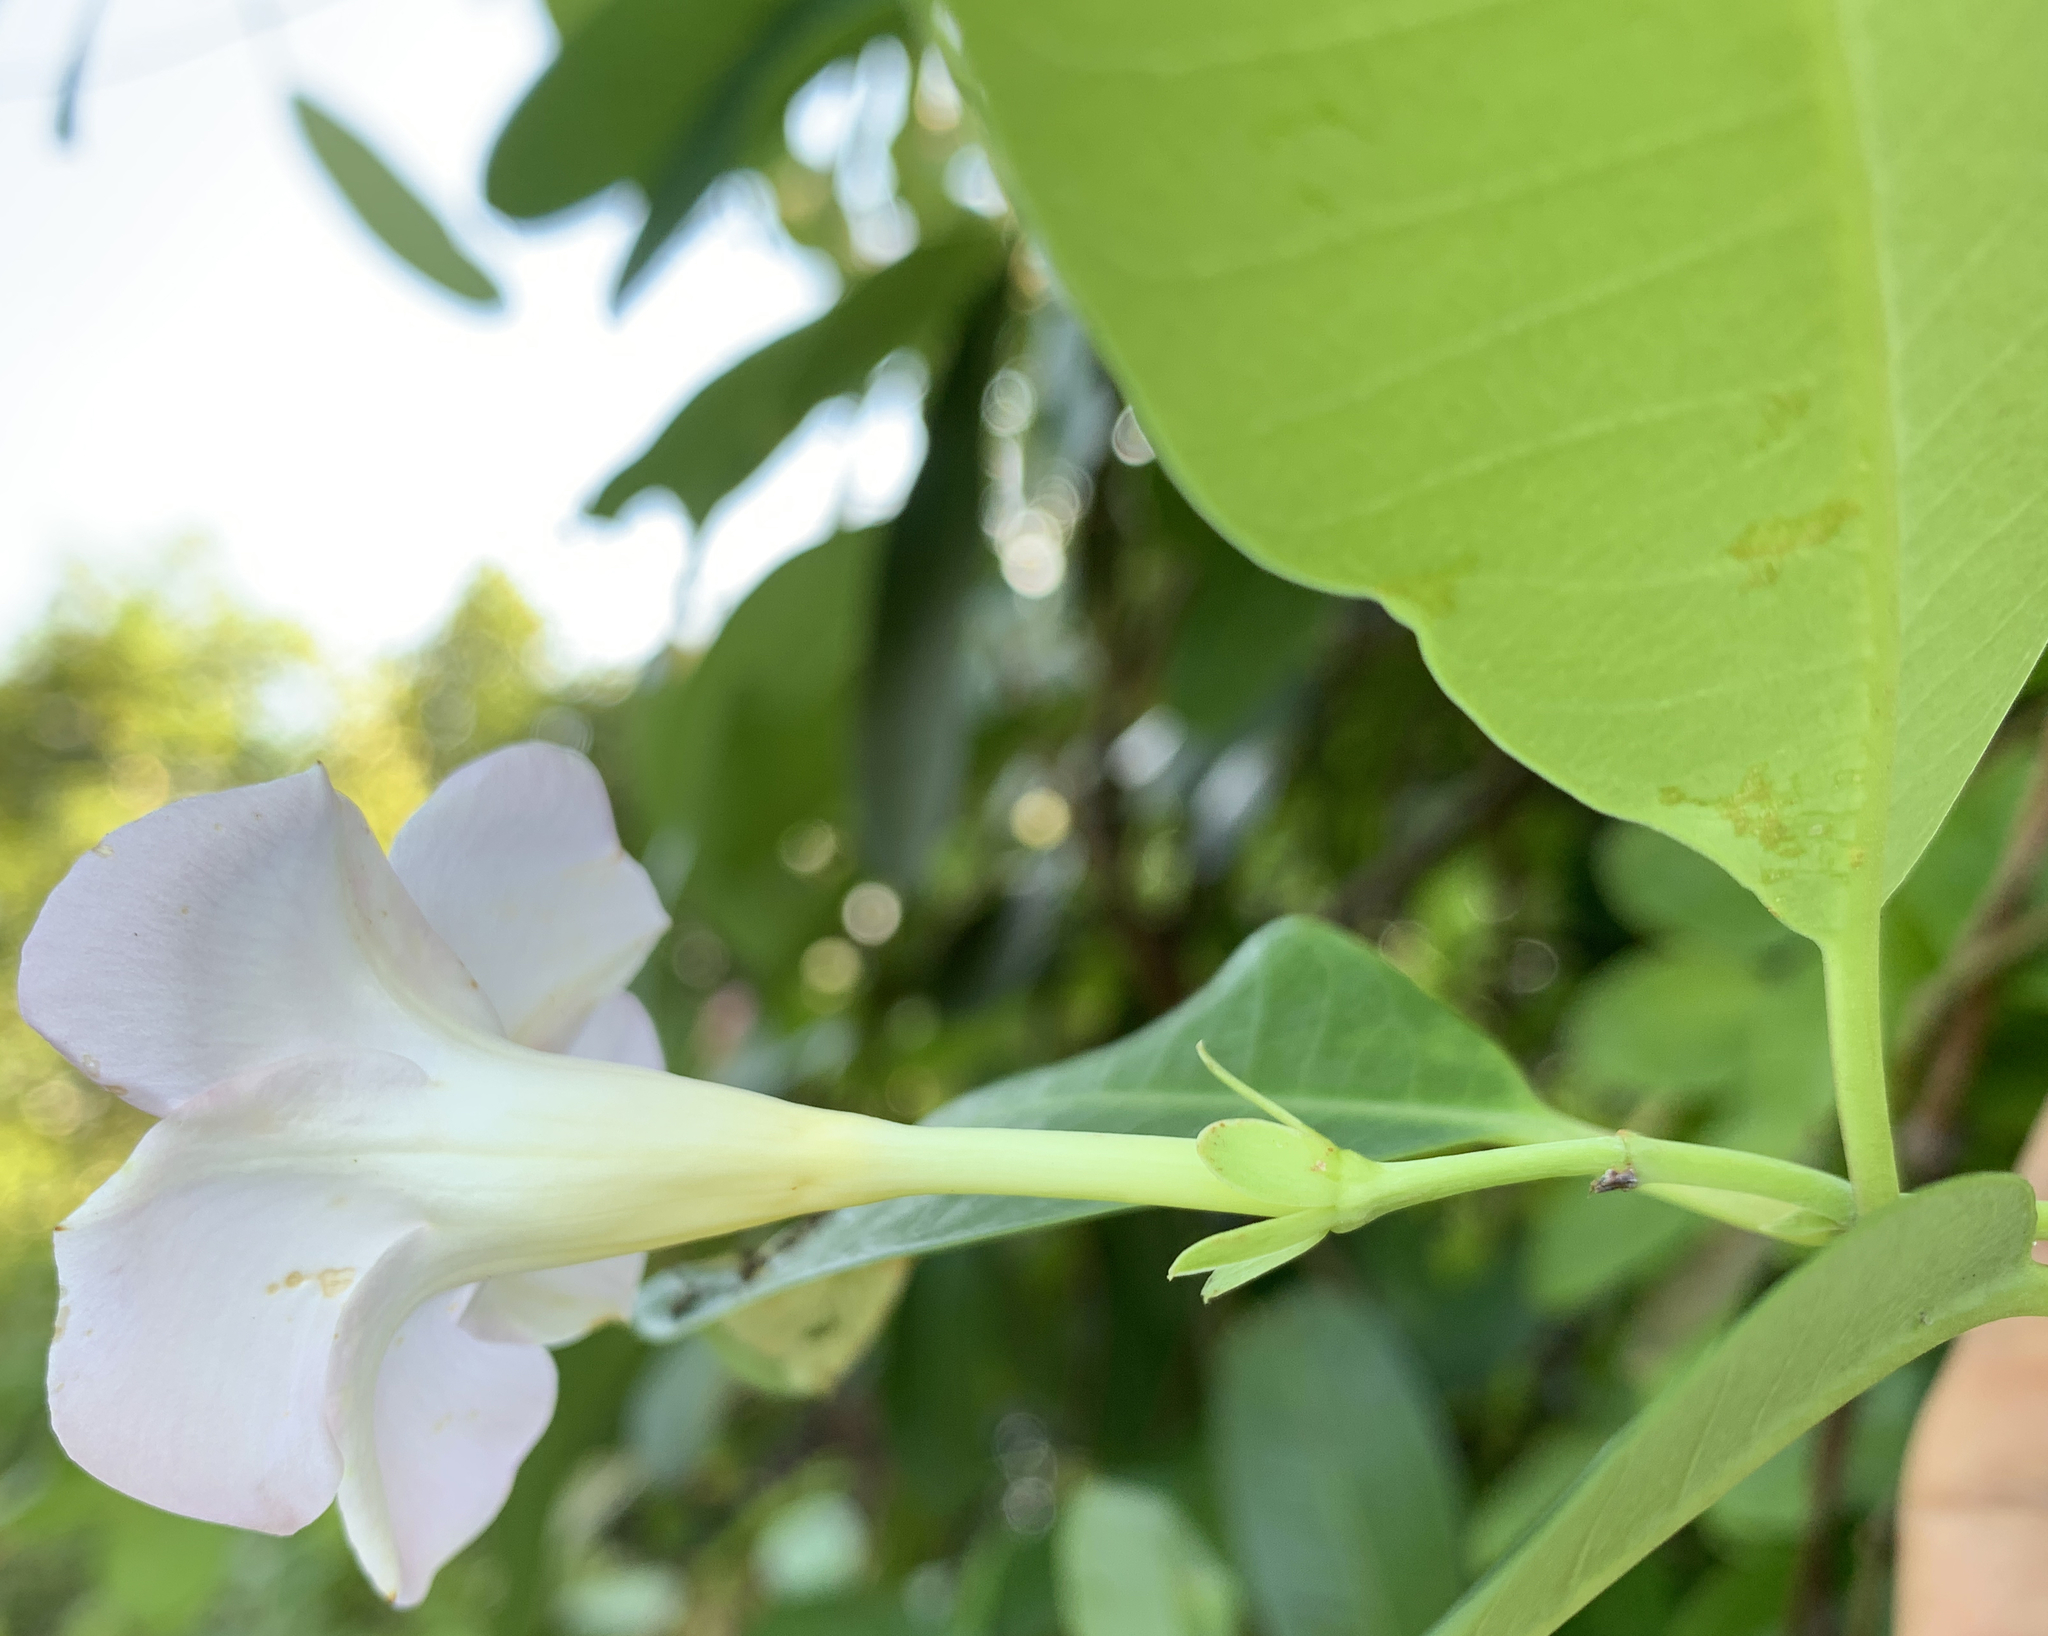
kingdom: Plantae
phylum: Tracheophyta
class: Magnoliopsida
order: Gentianales
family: Apocynaceae
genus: Rhabdadenia
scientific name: Rhabdadenia biflora
